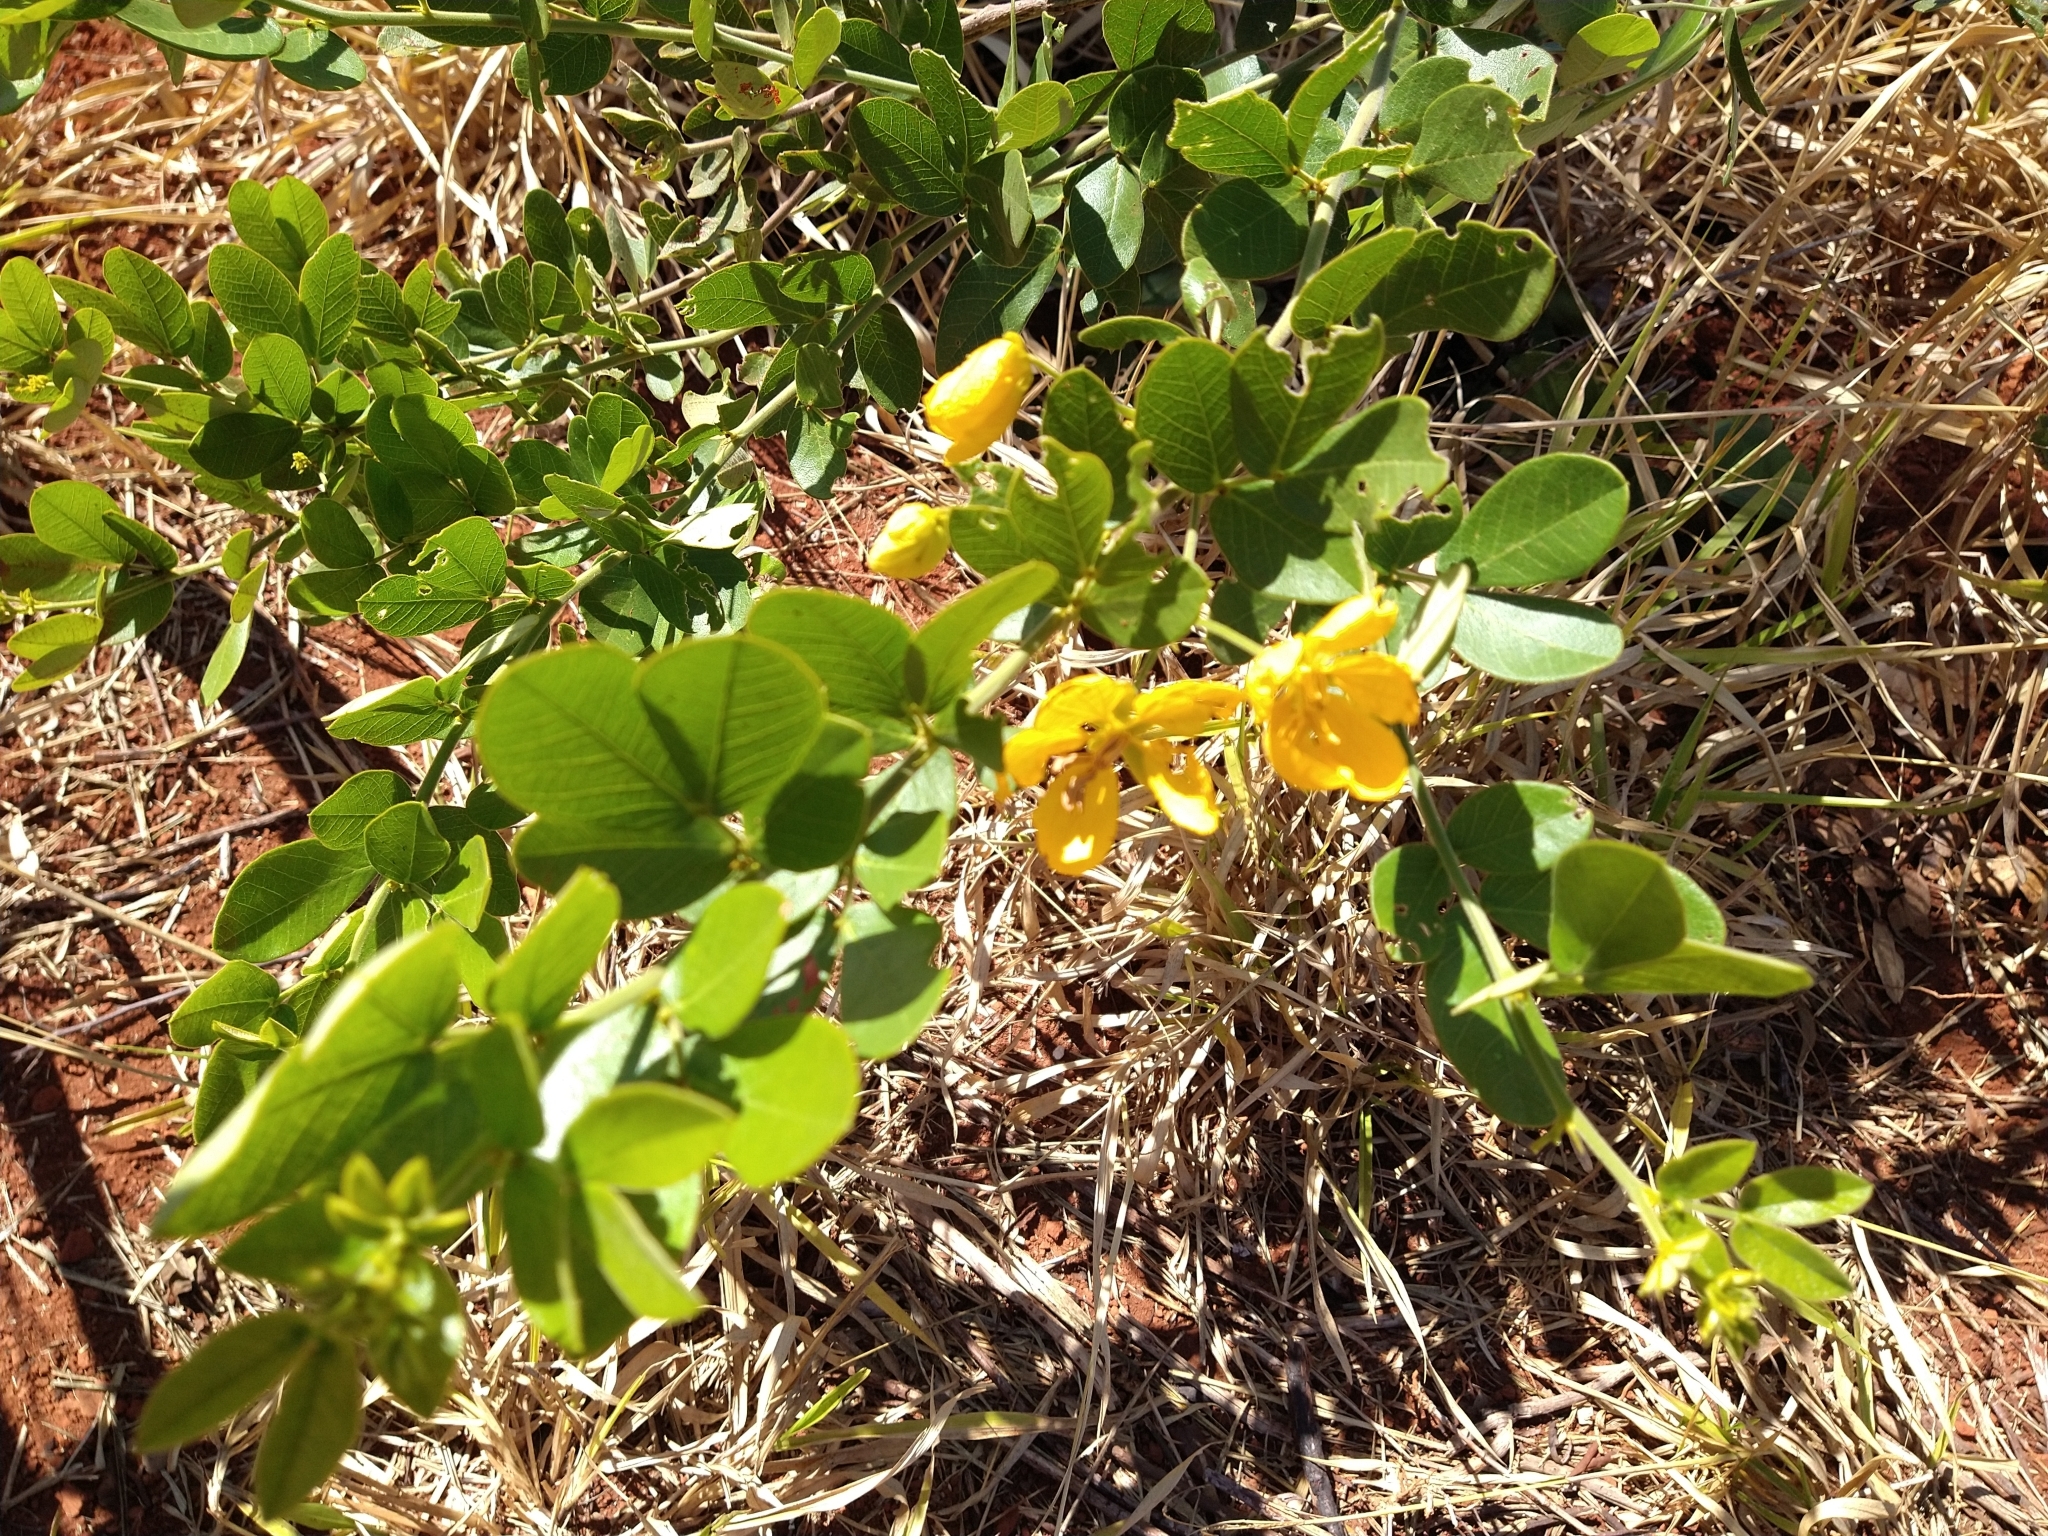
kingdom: Plantae
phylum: Tracheophyta
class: Magnoliopsida
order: Fabales
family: Fabaceae
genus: Senna
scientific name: Senna rugosa
